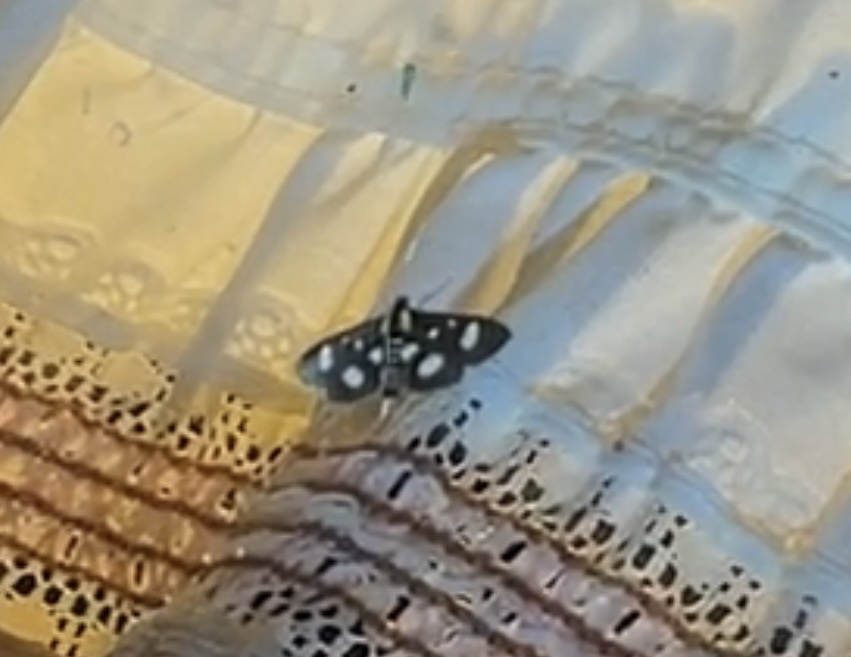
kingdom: Animalia
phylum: Arthropoda
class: Insecta
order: Lepidoptera
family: Crambidae
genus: Anania
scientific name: Anania funebris
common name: White-spotted sable moth
